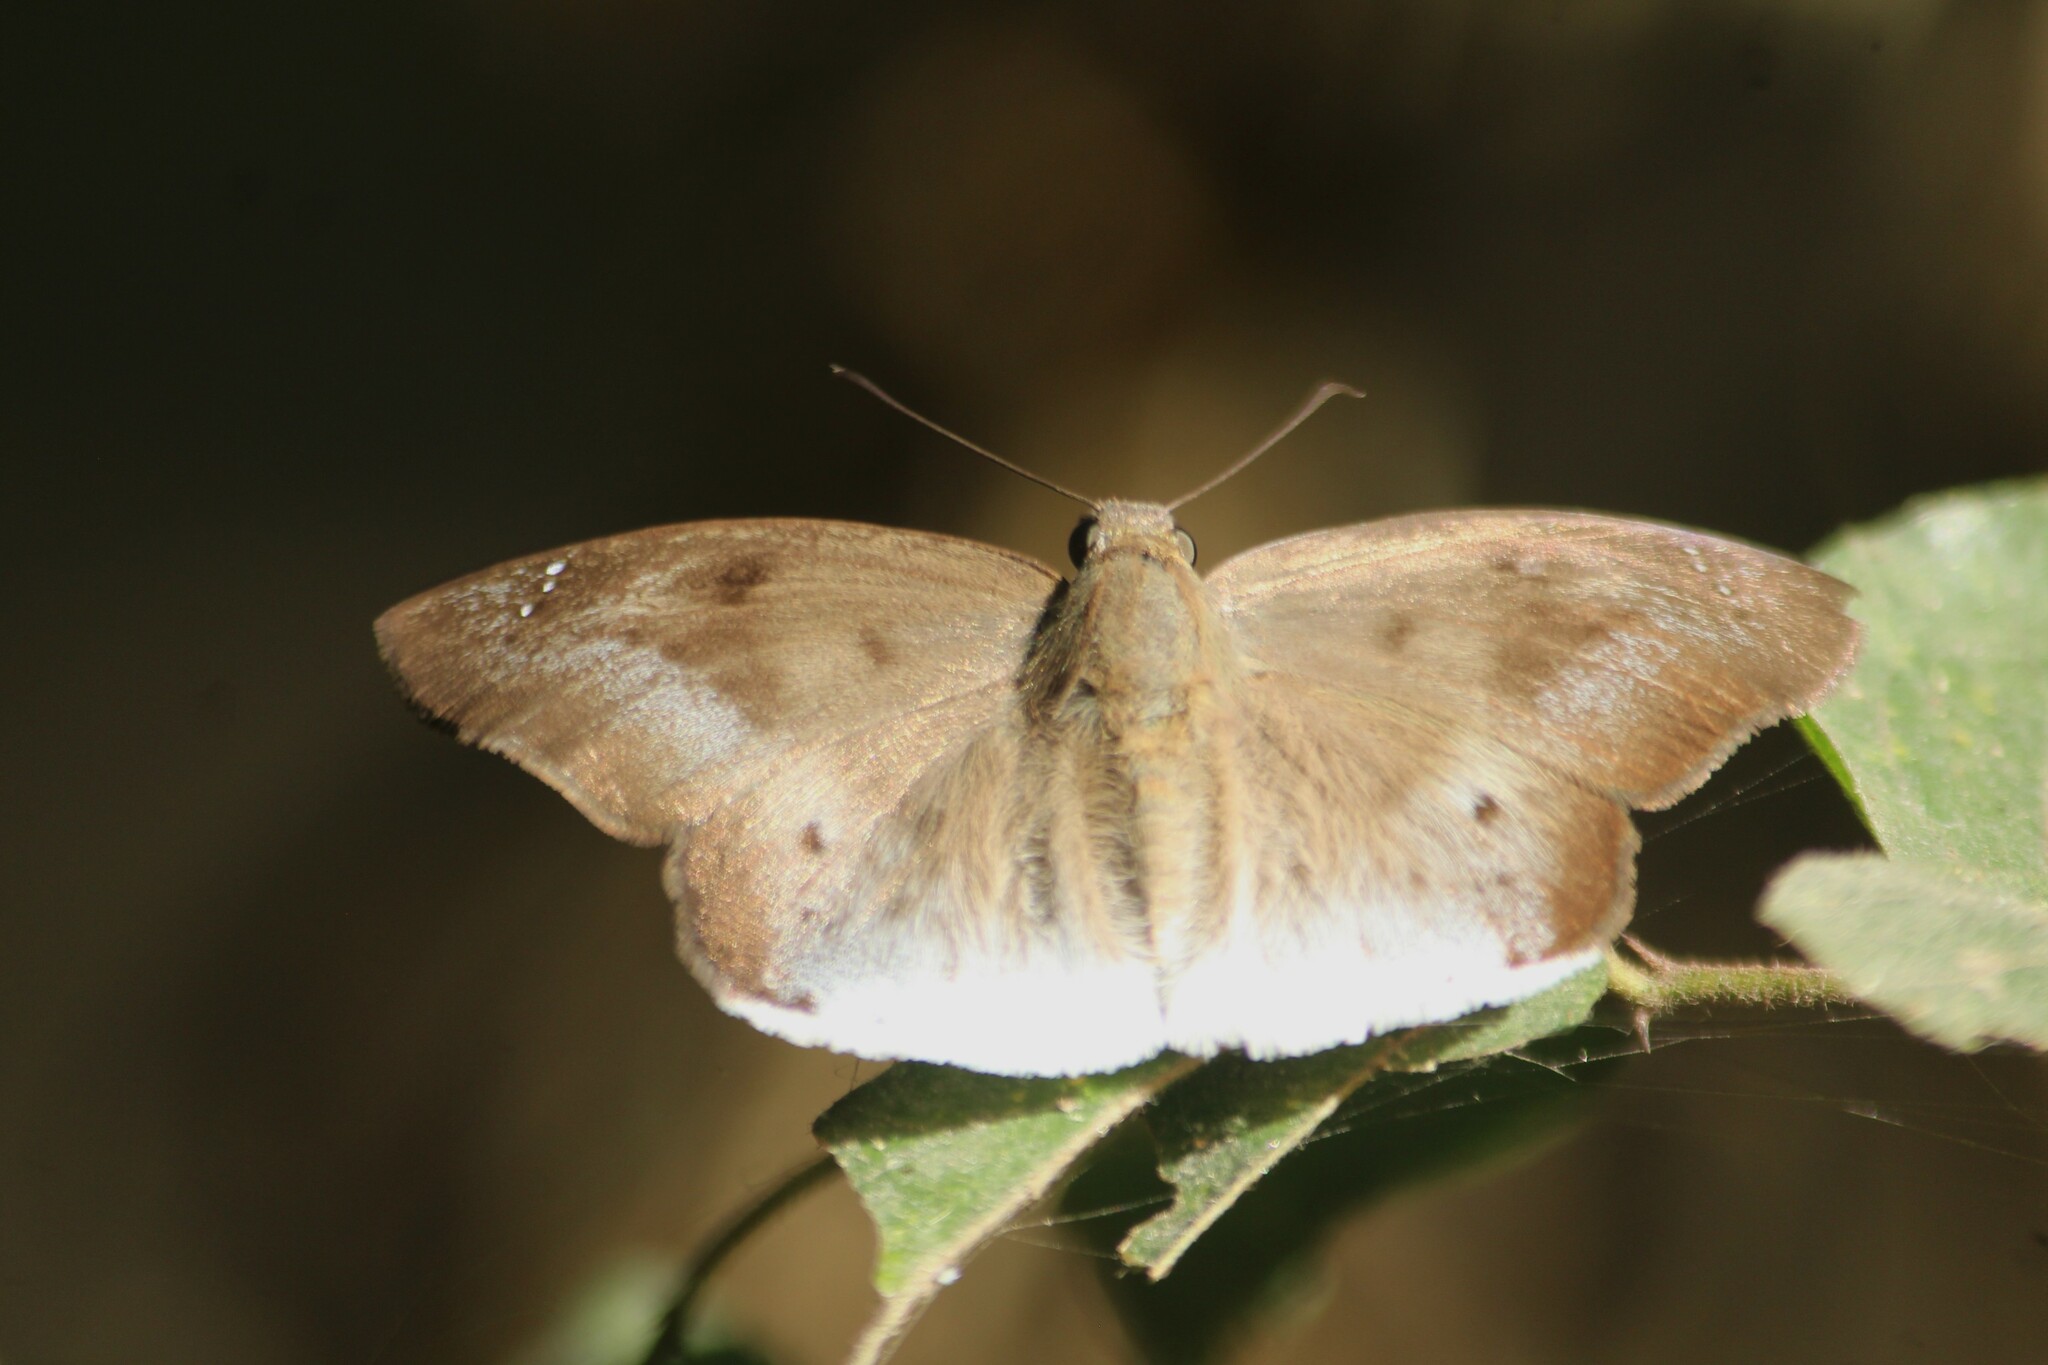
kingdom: Animalia
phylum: Arthropoda
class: Insecta
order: Lepidoptera
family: Hesperiidae
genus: Tagiades
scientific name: Tagiades japetus
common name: Pied flat
